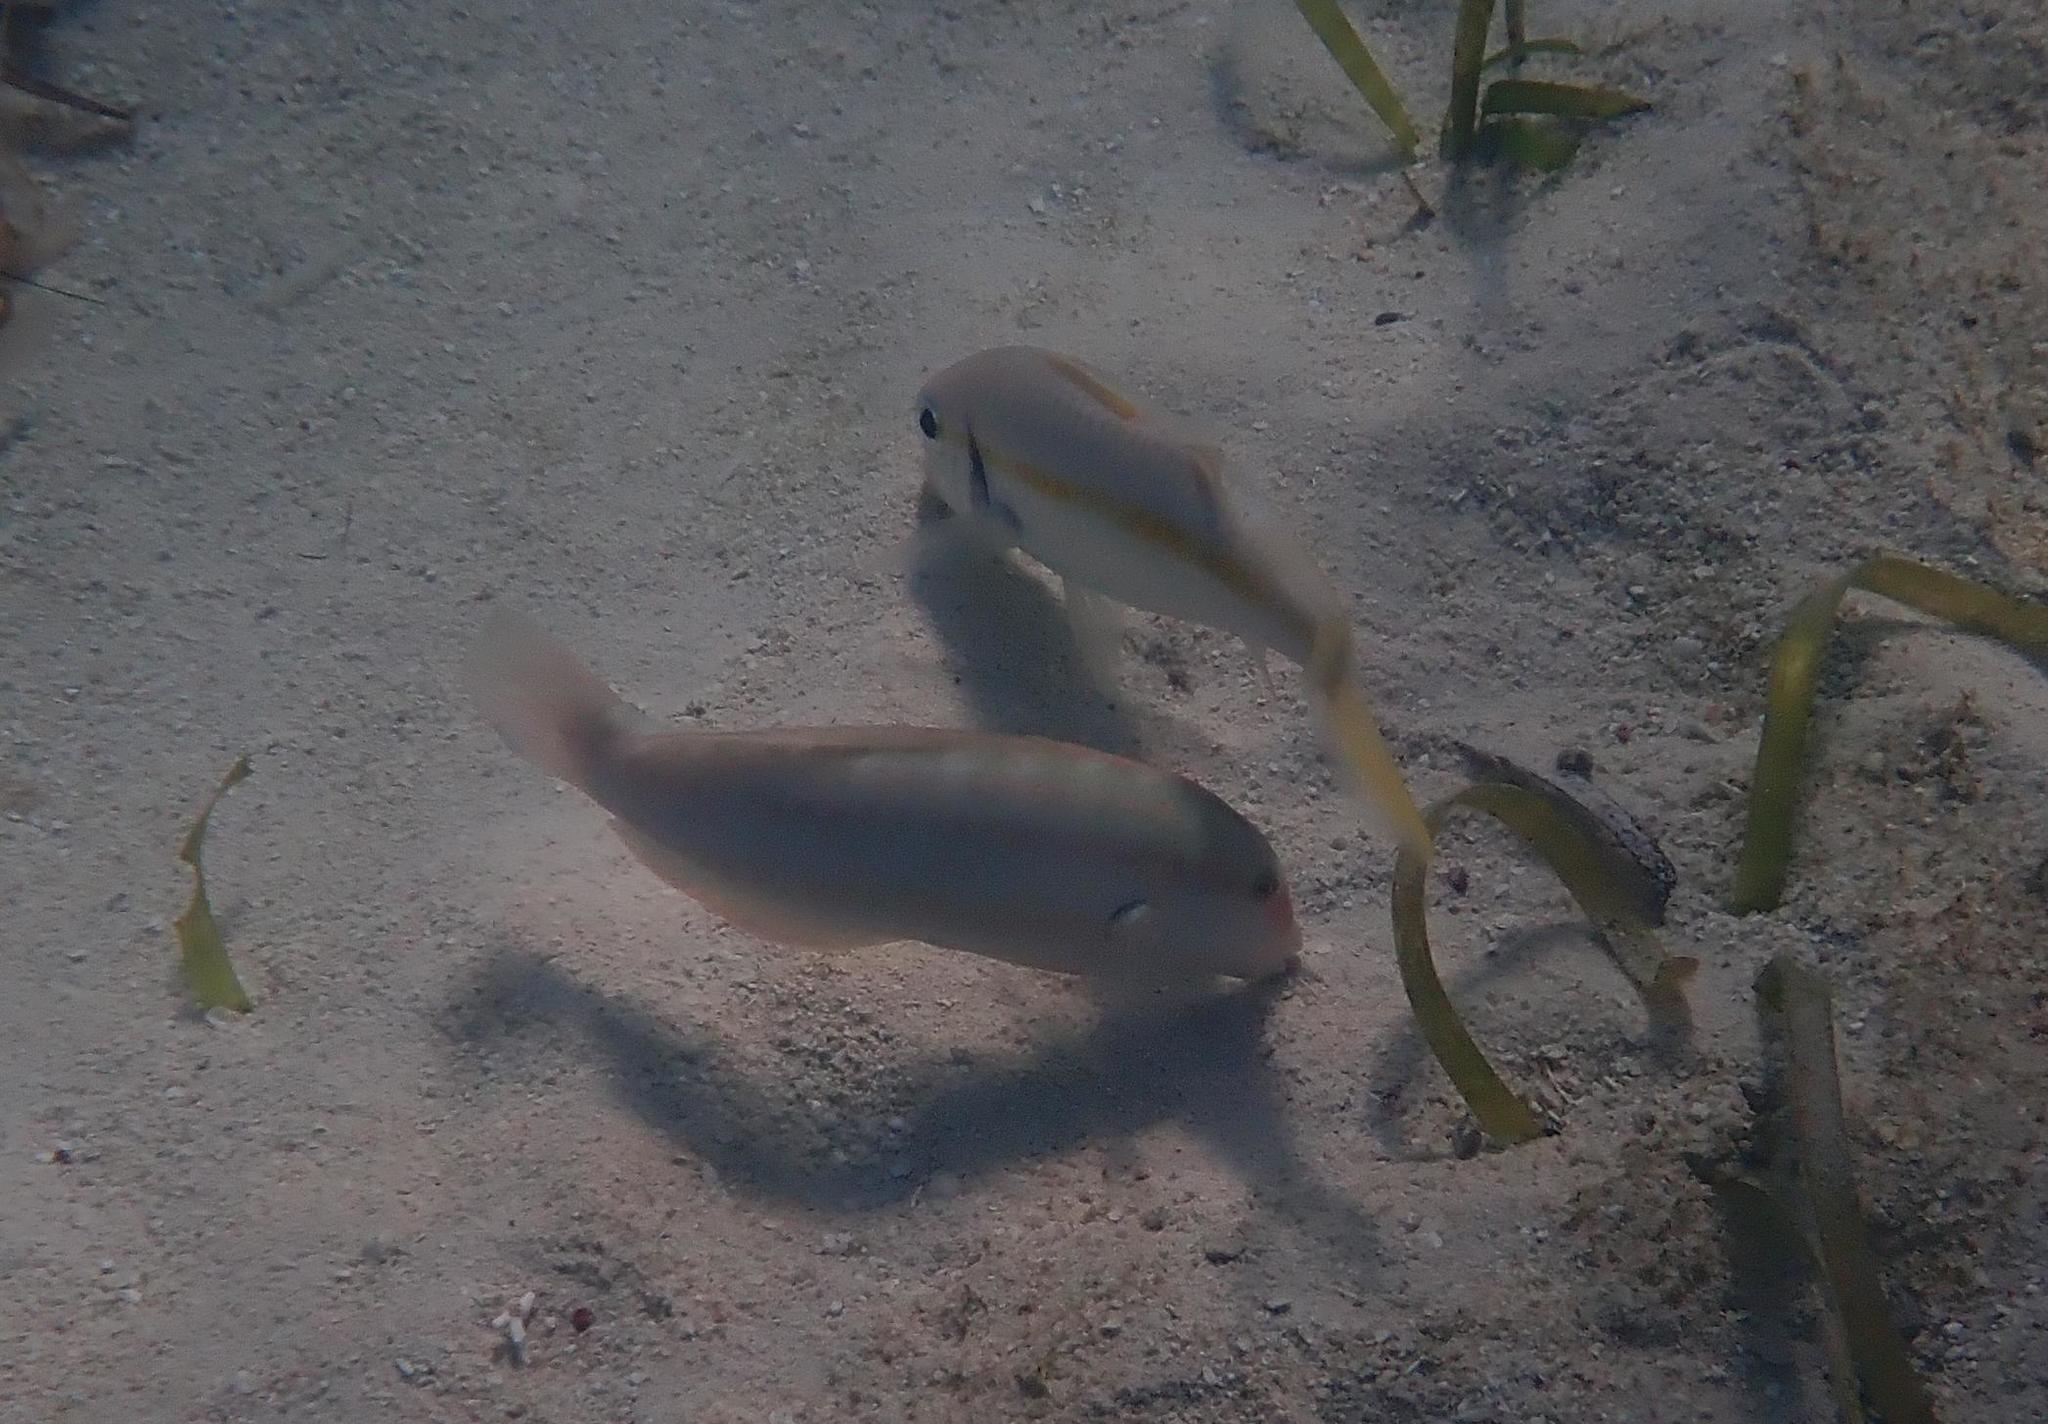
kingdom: Animalia
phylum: Chordata
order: Perciformes
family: Labridae
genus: Halichoeres
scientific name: Halichoeres bivittatus
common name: Slippery dick
